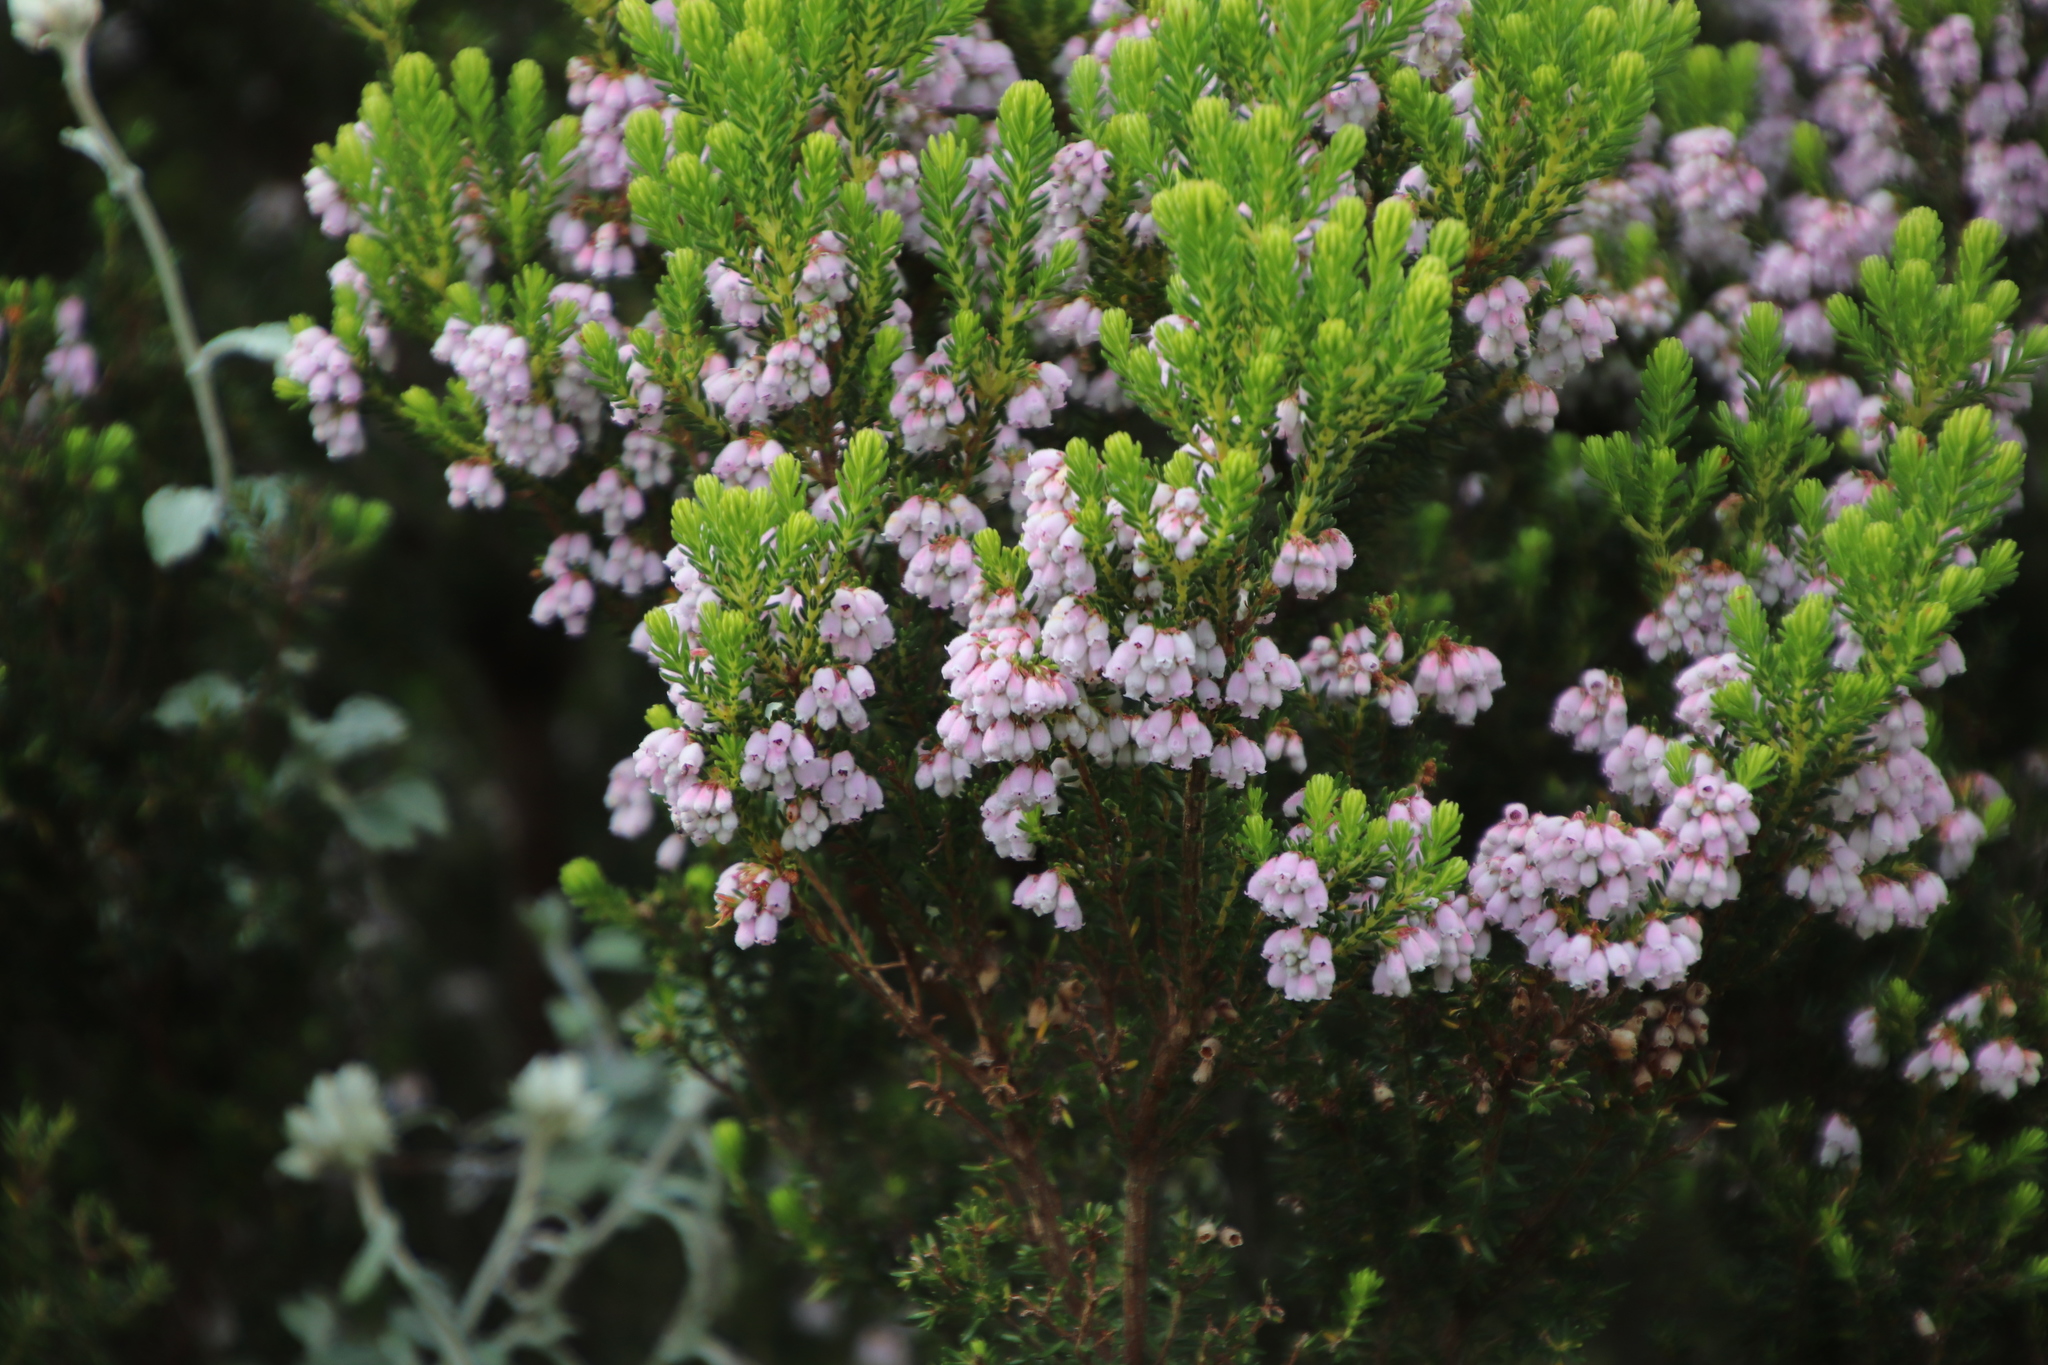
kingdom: Plantae
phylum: Tracheophyta
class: Magnoliopsida
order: Ericales
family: Ericaceae
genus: Erica
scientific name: Erica caterviflora
